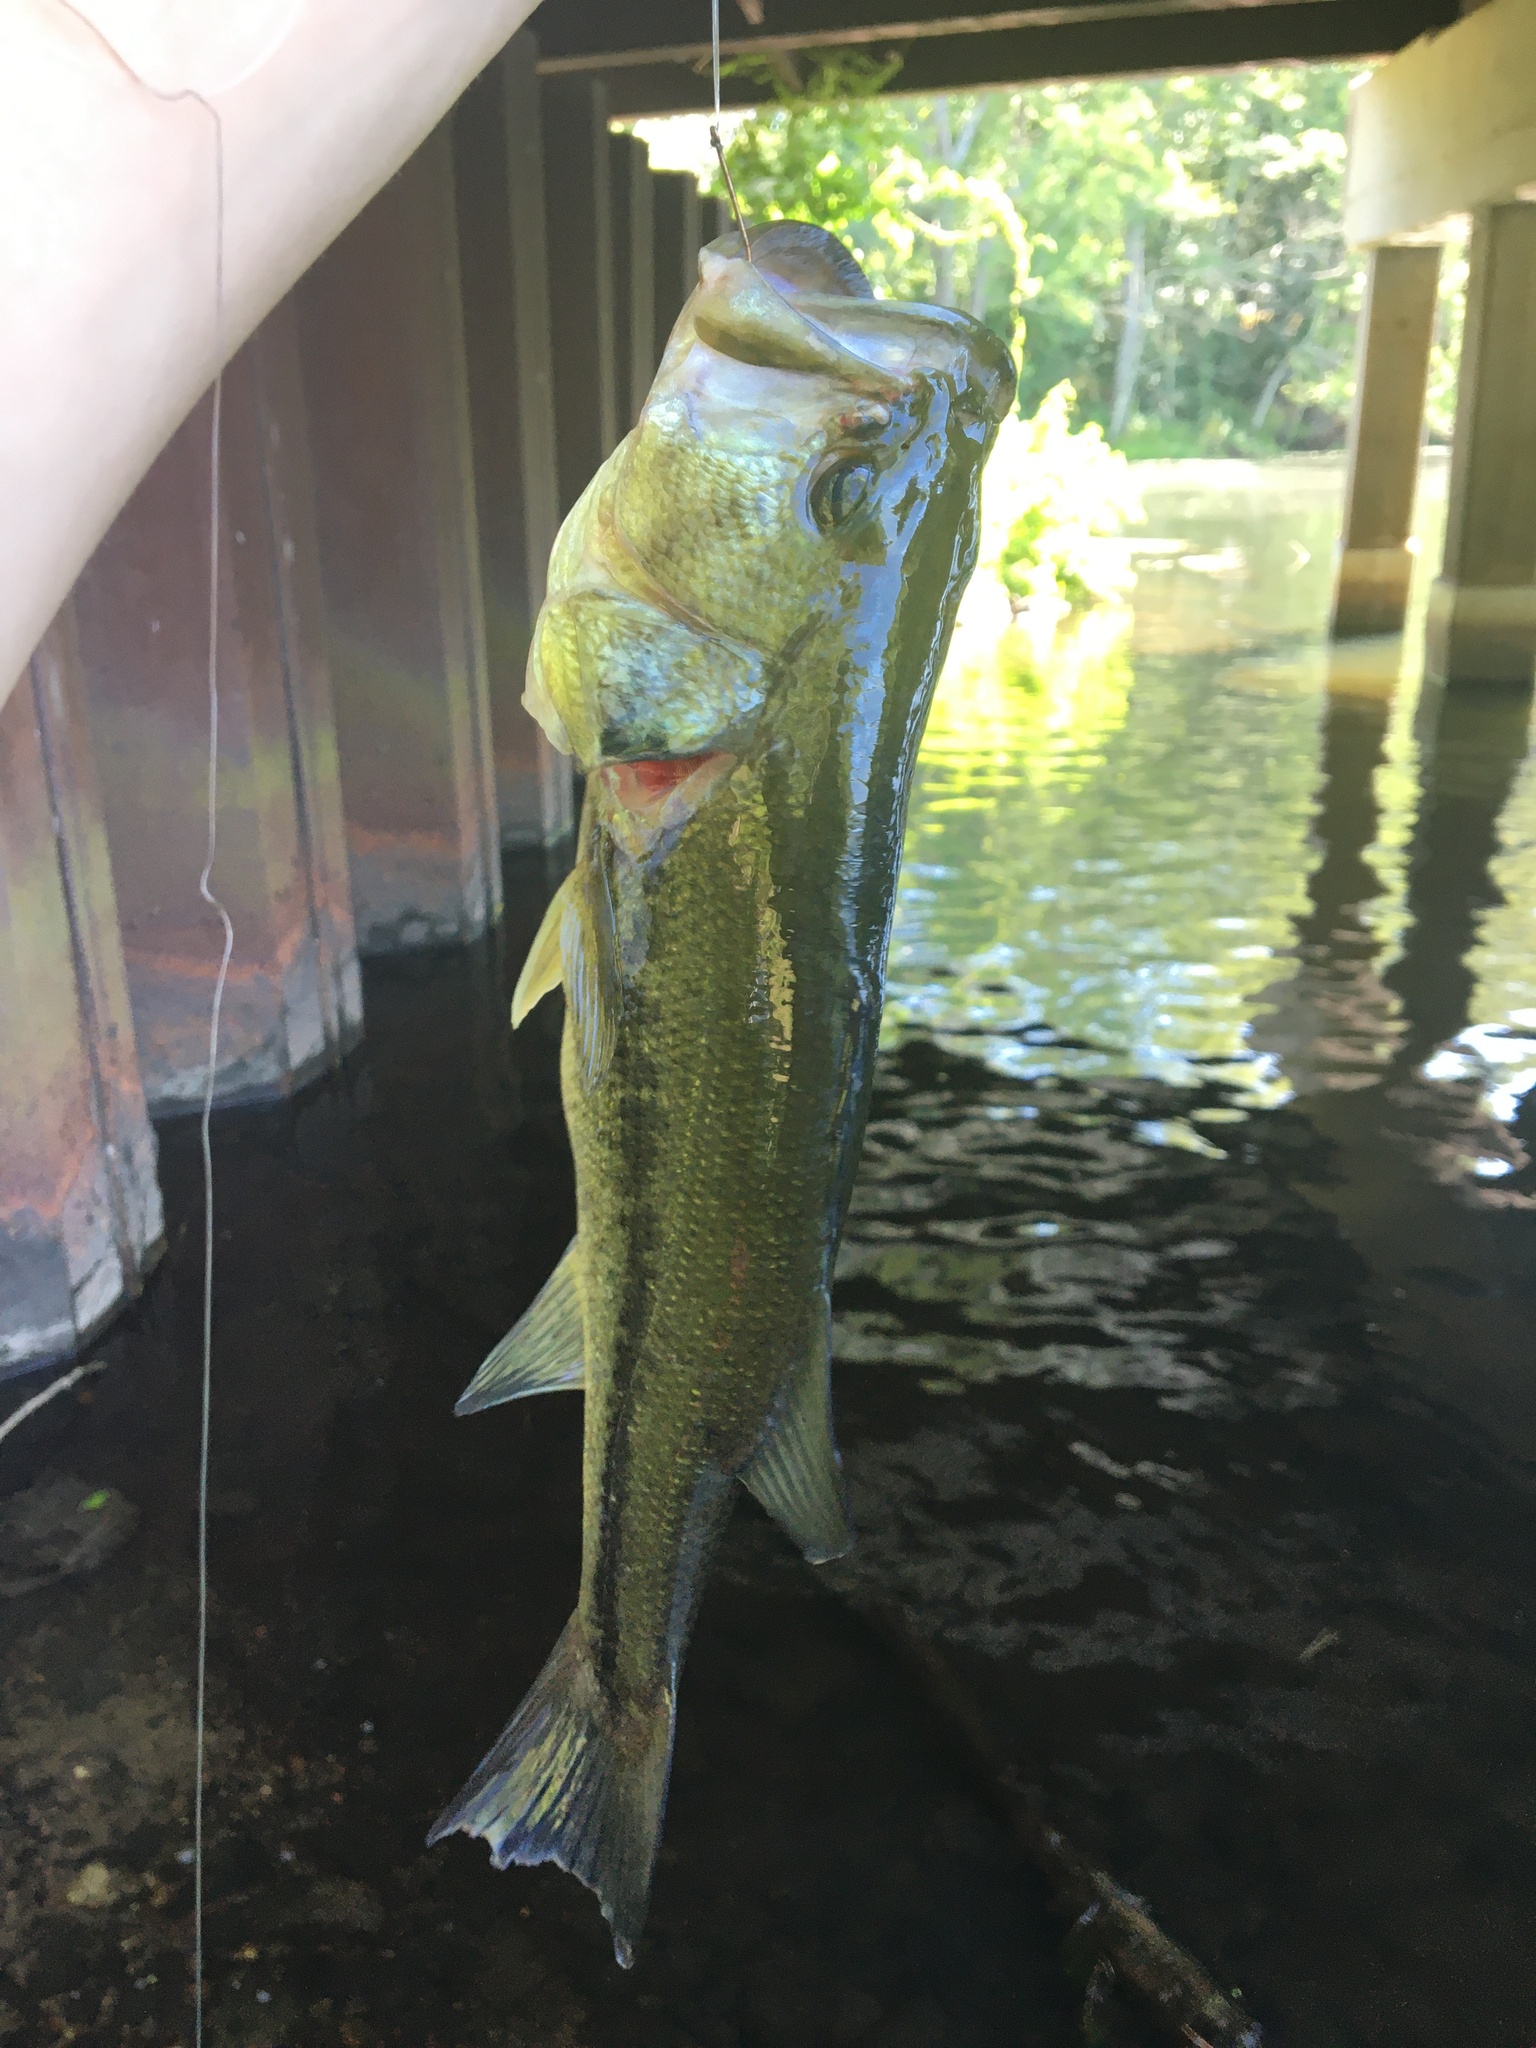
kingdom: Animalia
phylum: Chordata
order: Perciformes
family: Centrarchidae
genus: Micropterus
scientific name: Micropterus
